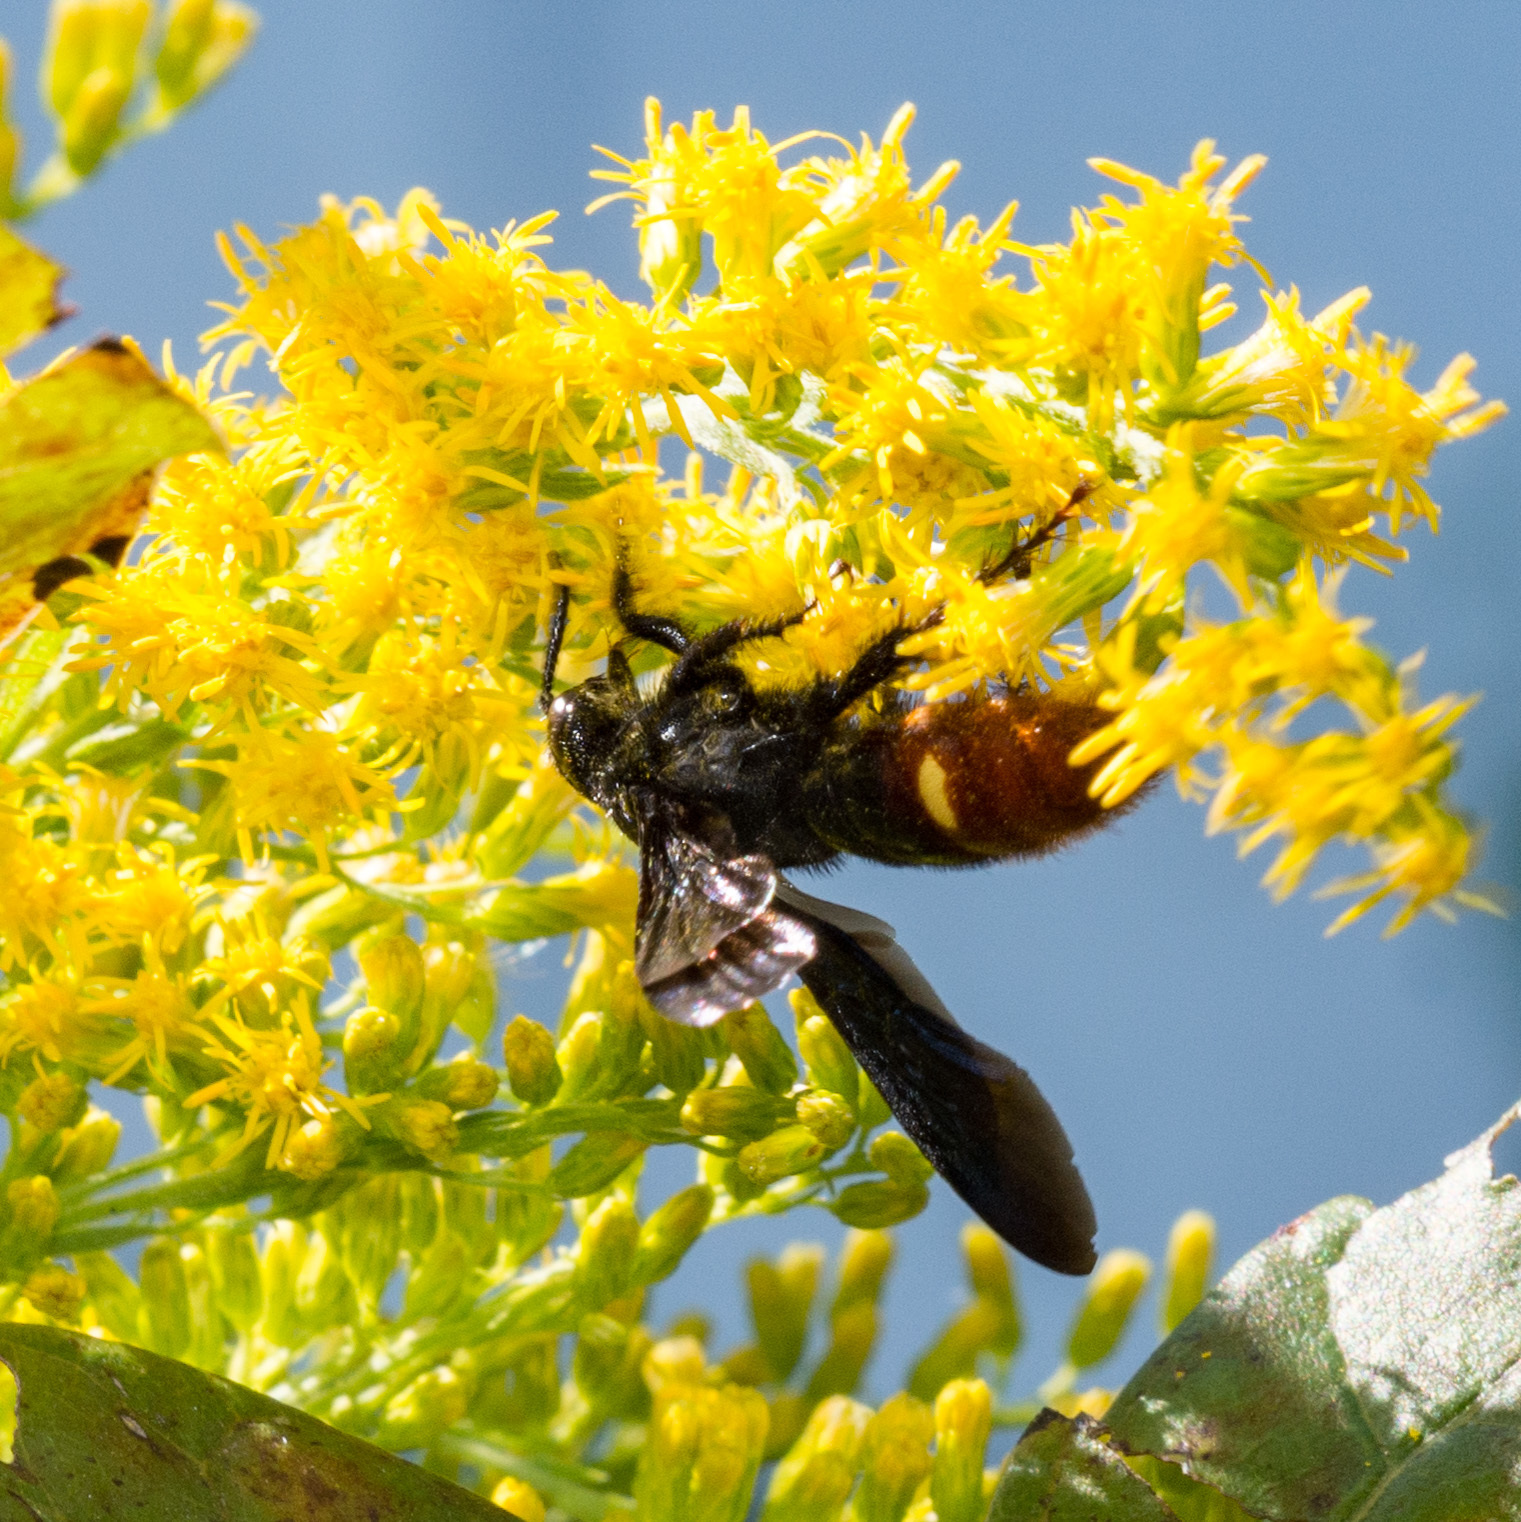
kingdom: Animalia
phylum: Arthropoda
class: Insecta
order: Hymenoptera
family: Scoliidae
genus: Scolia
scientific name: Scolia dubia
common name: Blue-winged scoliid wasp
